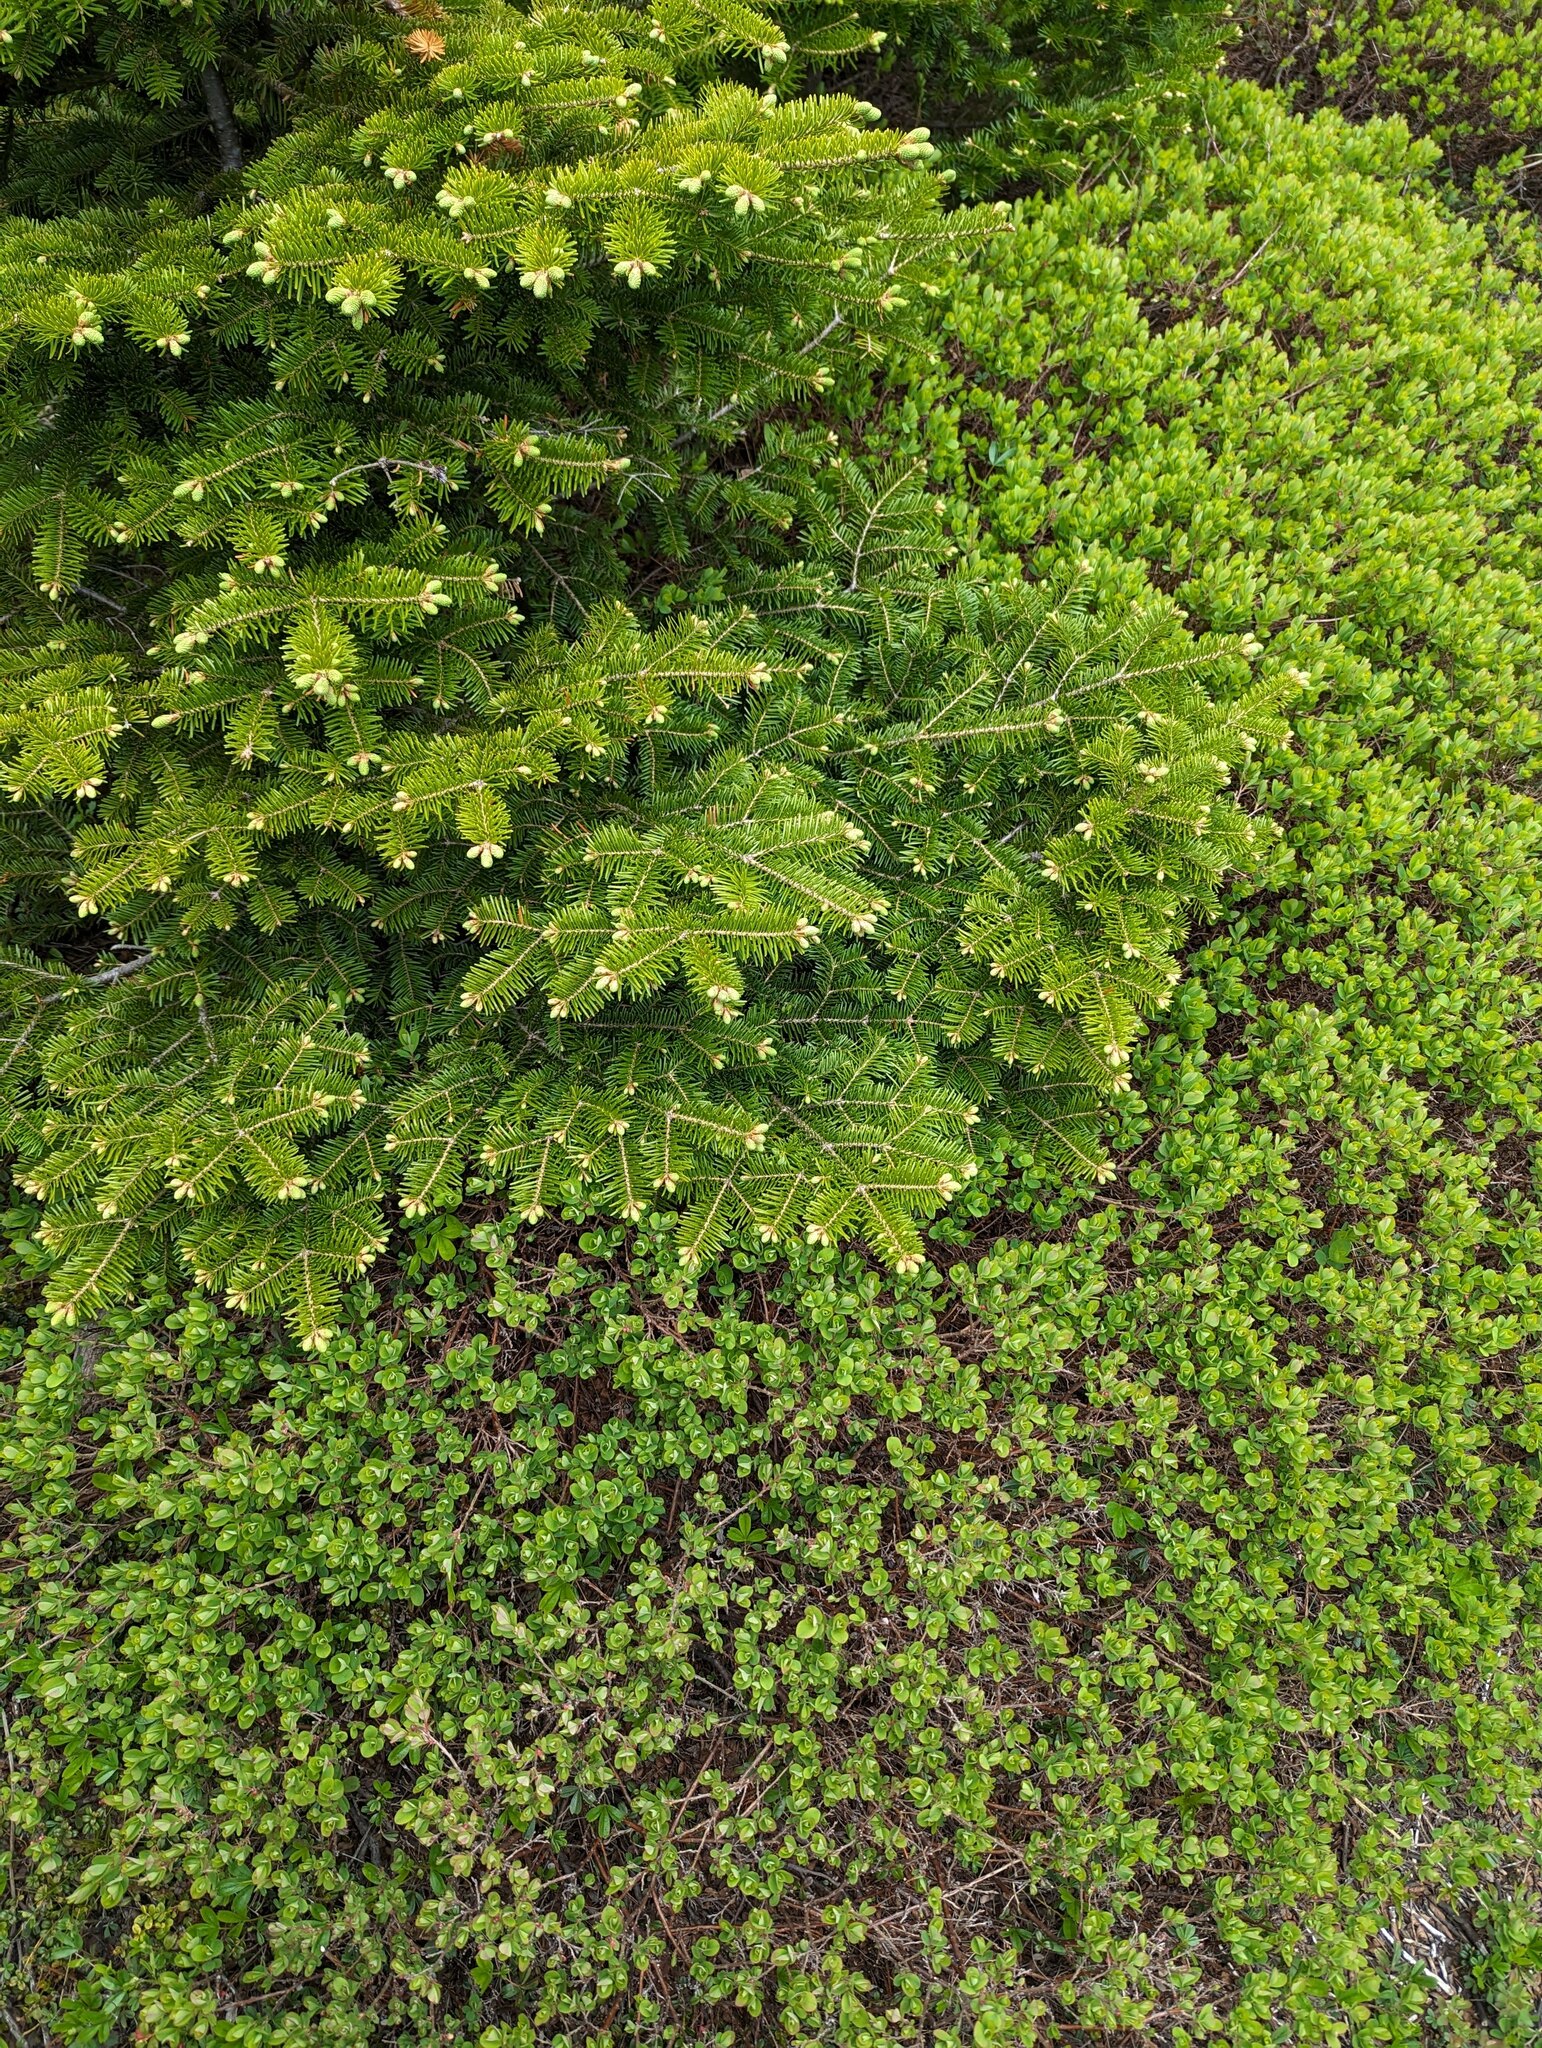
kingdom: Plantae
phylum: Tracheophyta
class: Pinopsida
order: Pinales
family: Pinaceae
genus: Abies
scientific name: Abies balsamea
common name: Balsam fir
